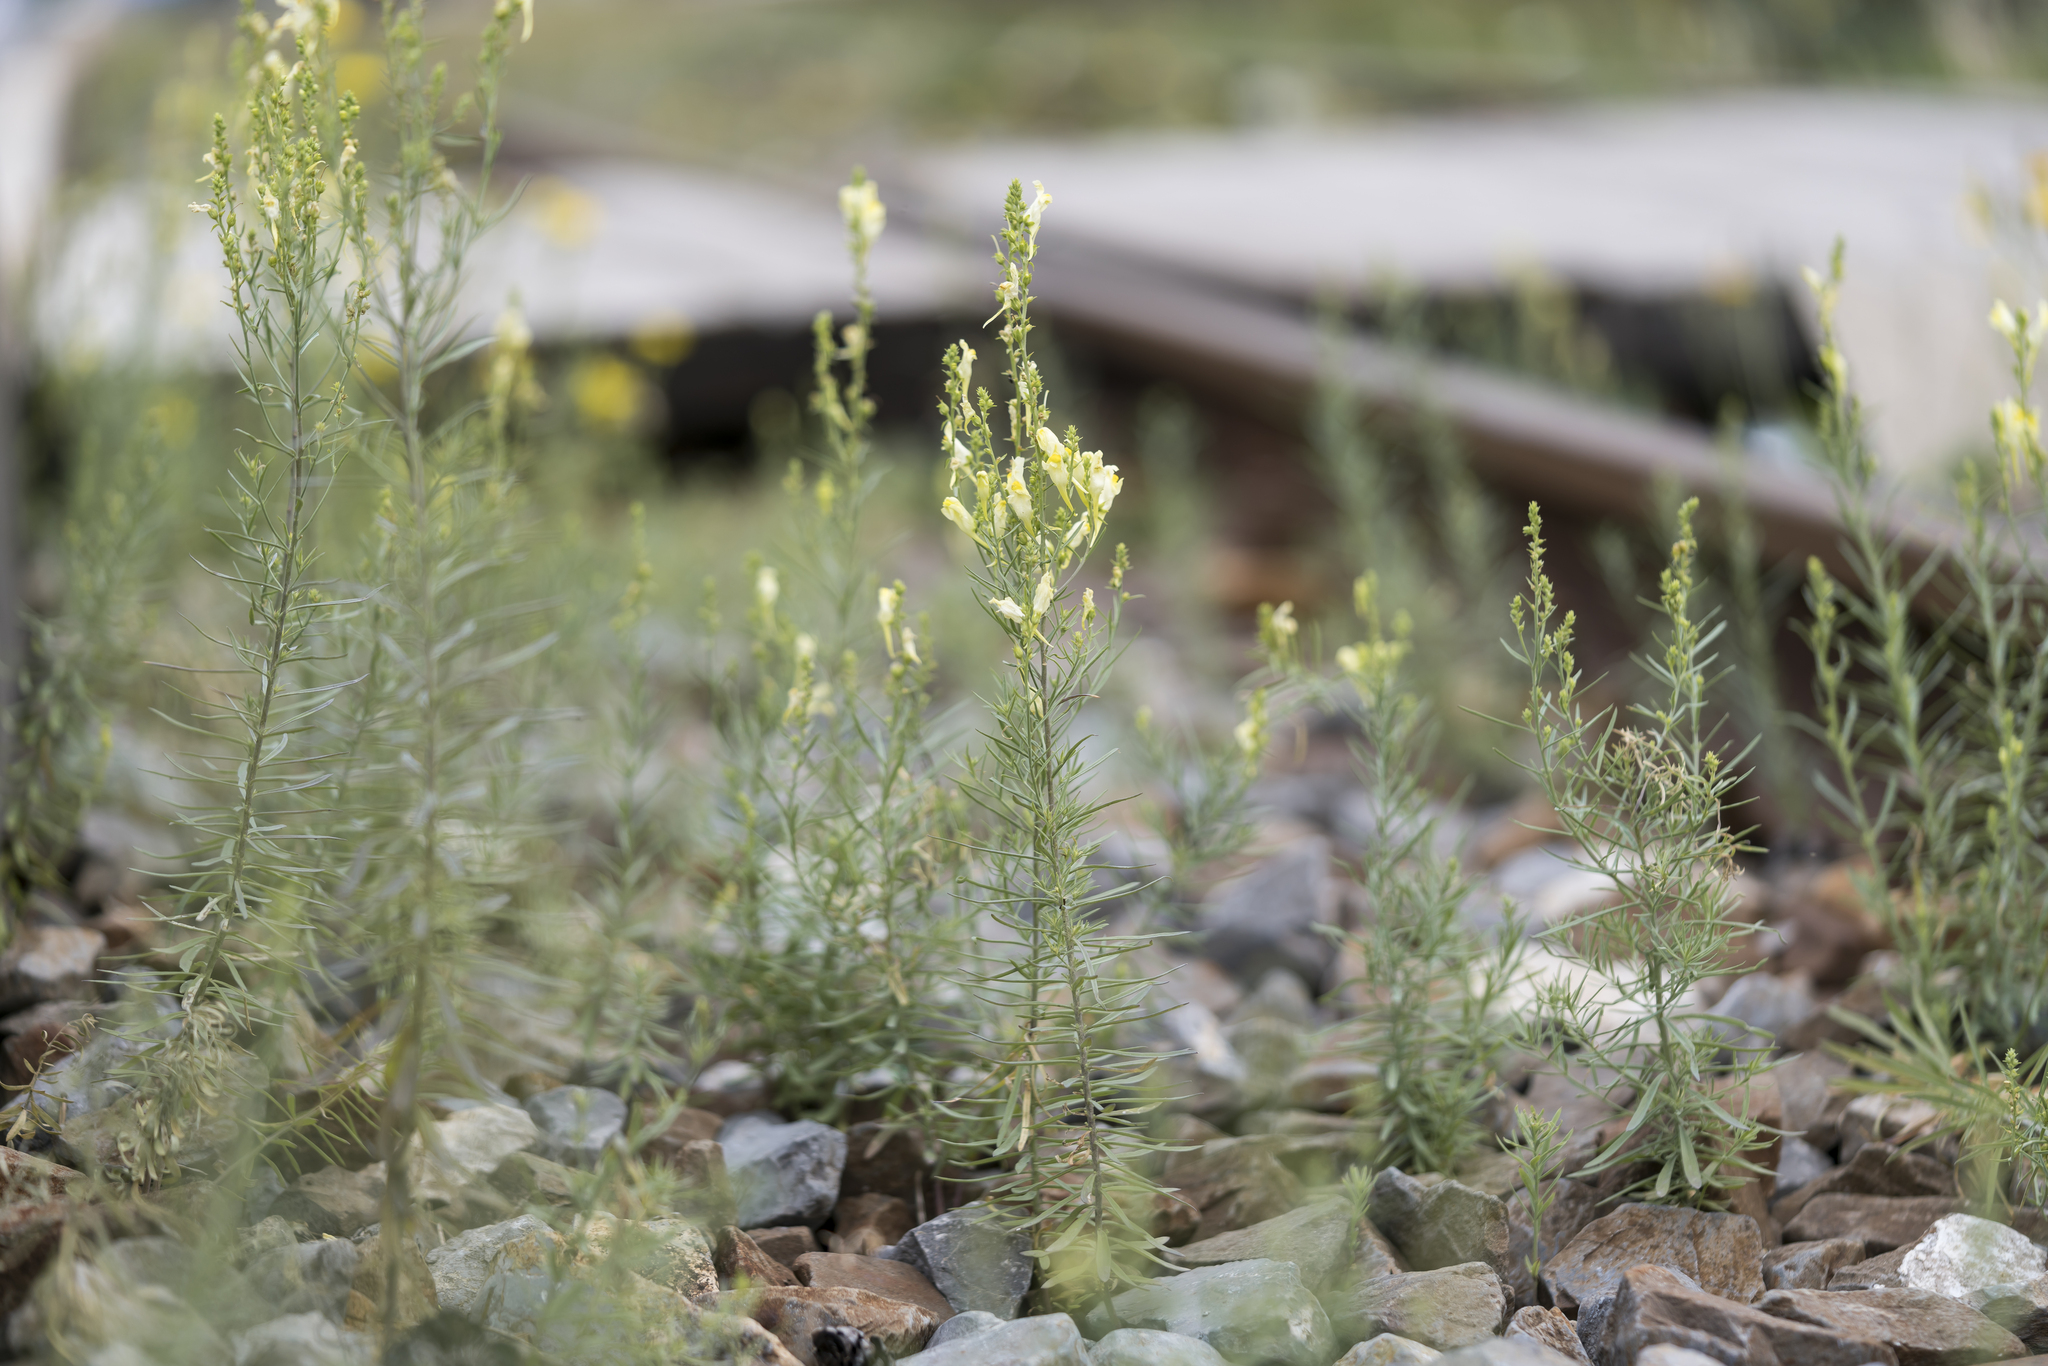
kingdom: Plantae
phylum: Tracheophyta
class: Magnoliopsida
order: Lamiales
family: Plantaginaceae
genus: Linaria
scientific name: Linaria vulgaris
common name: Butter and eggs
